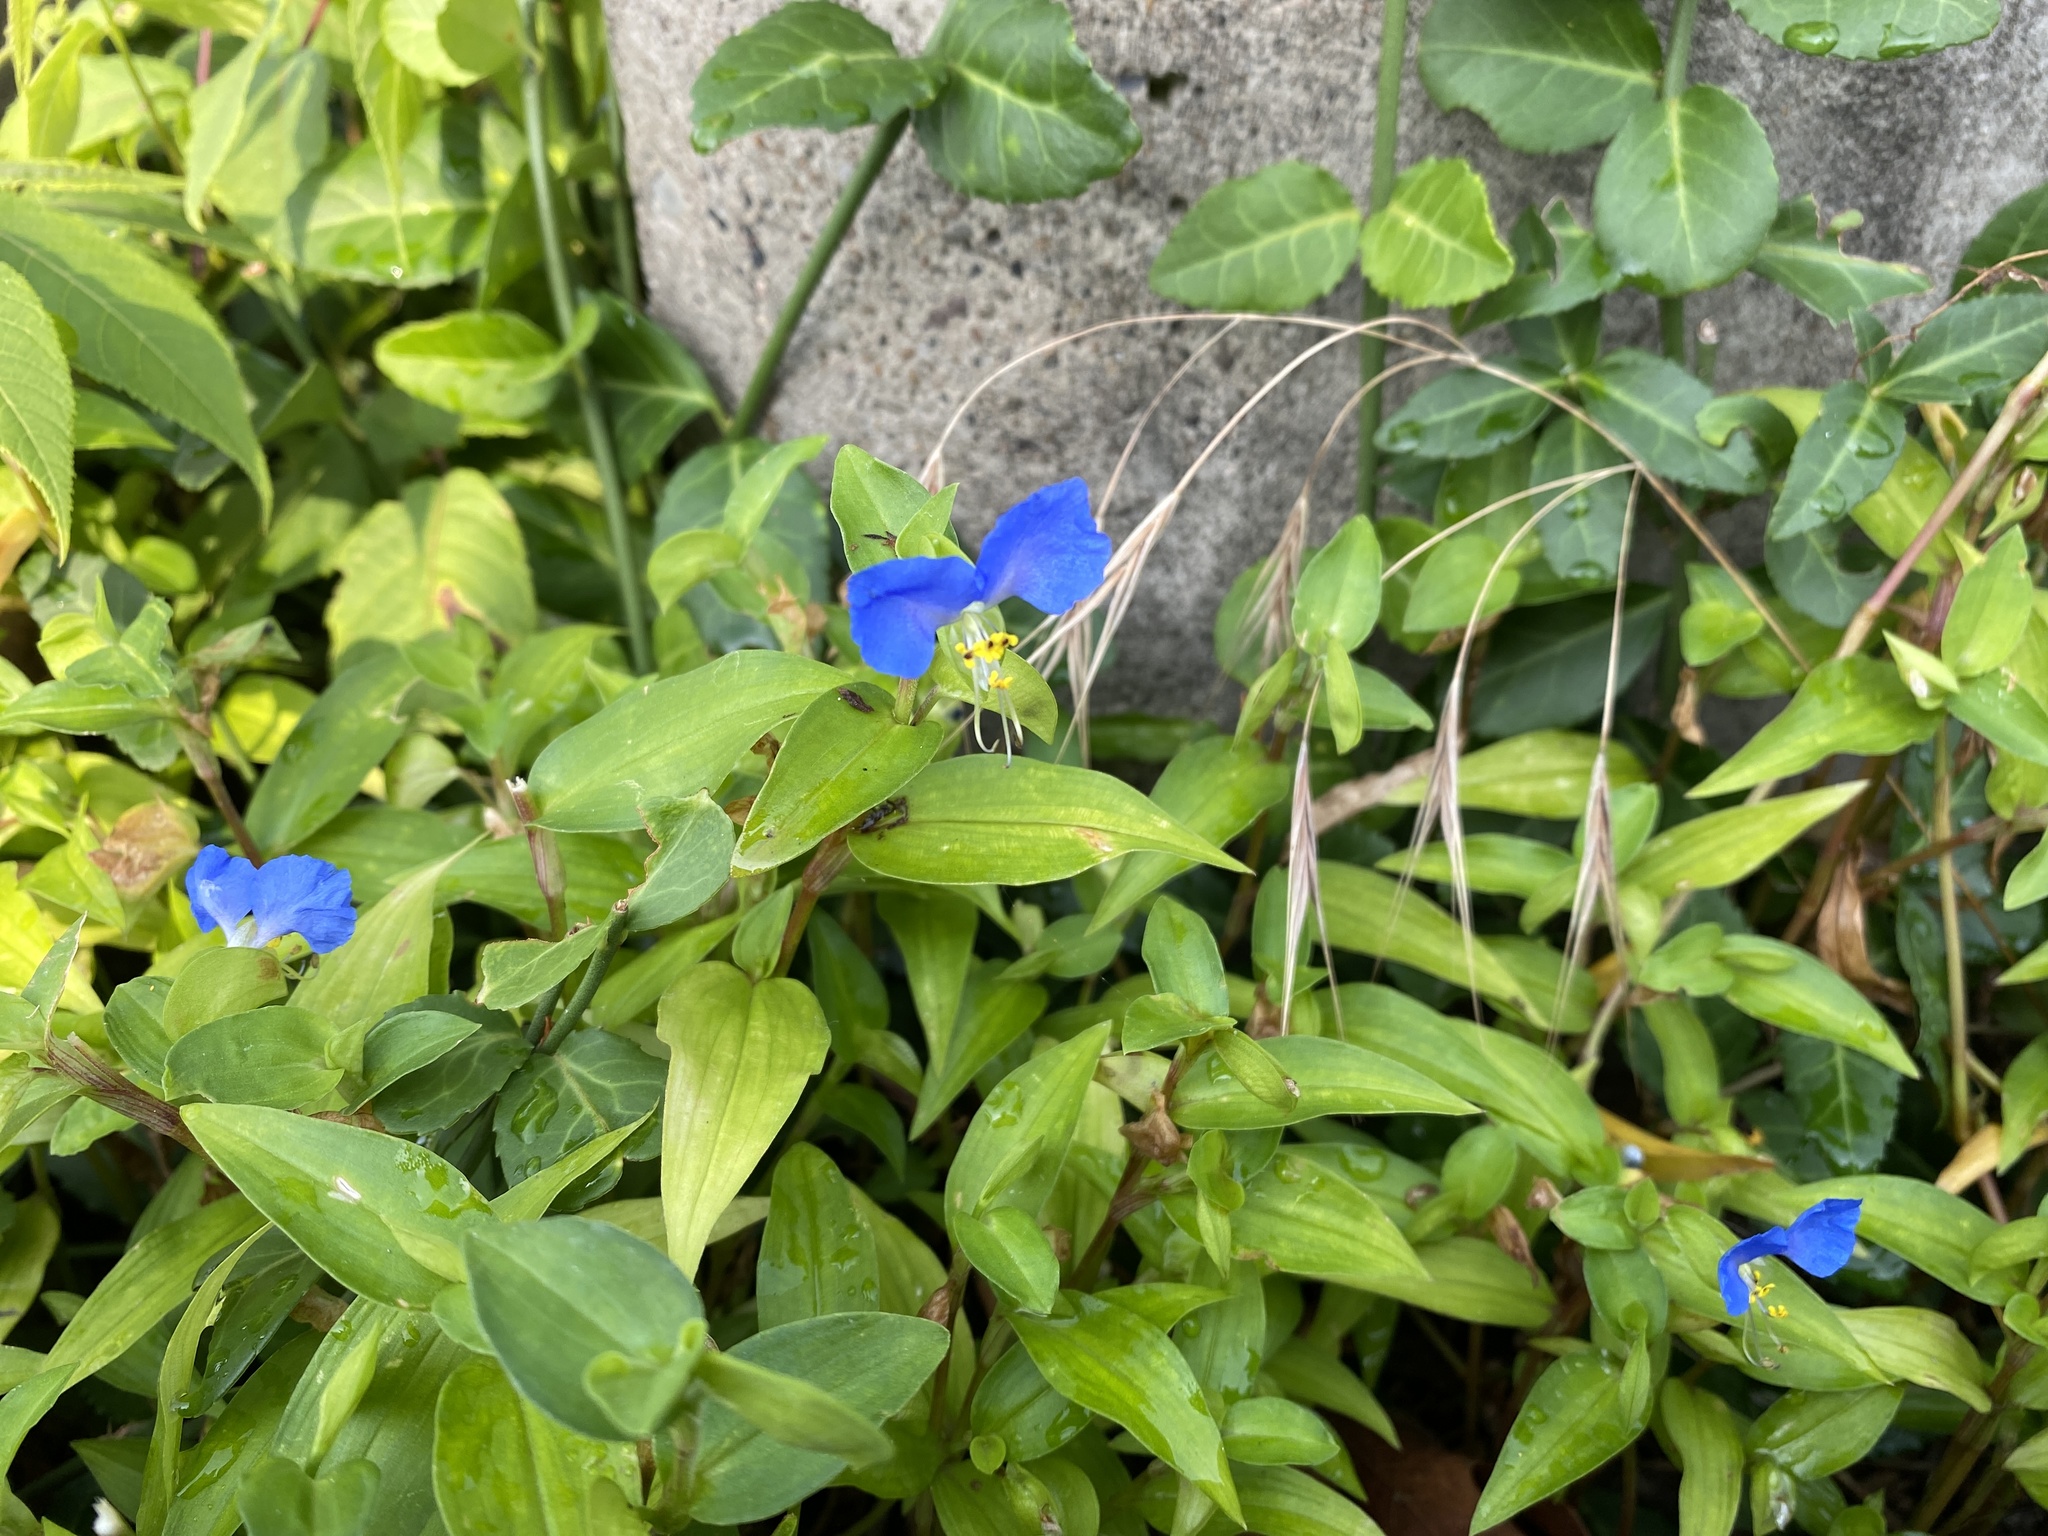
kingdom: Plantae
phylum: Tracheophyta
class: Liliopsida
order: Commelinales
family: Commelinaceae
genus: Commelina
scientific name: Commelina communis
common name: Asiatic dayflower
